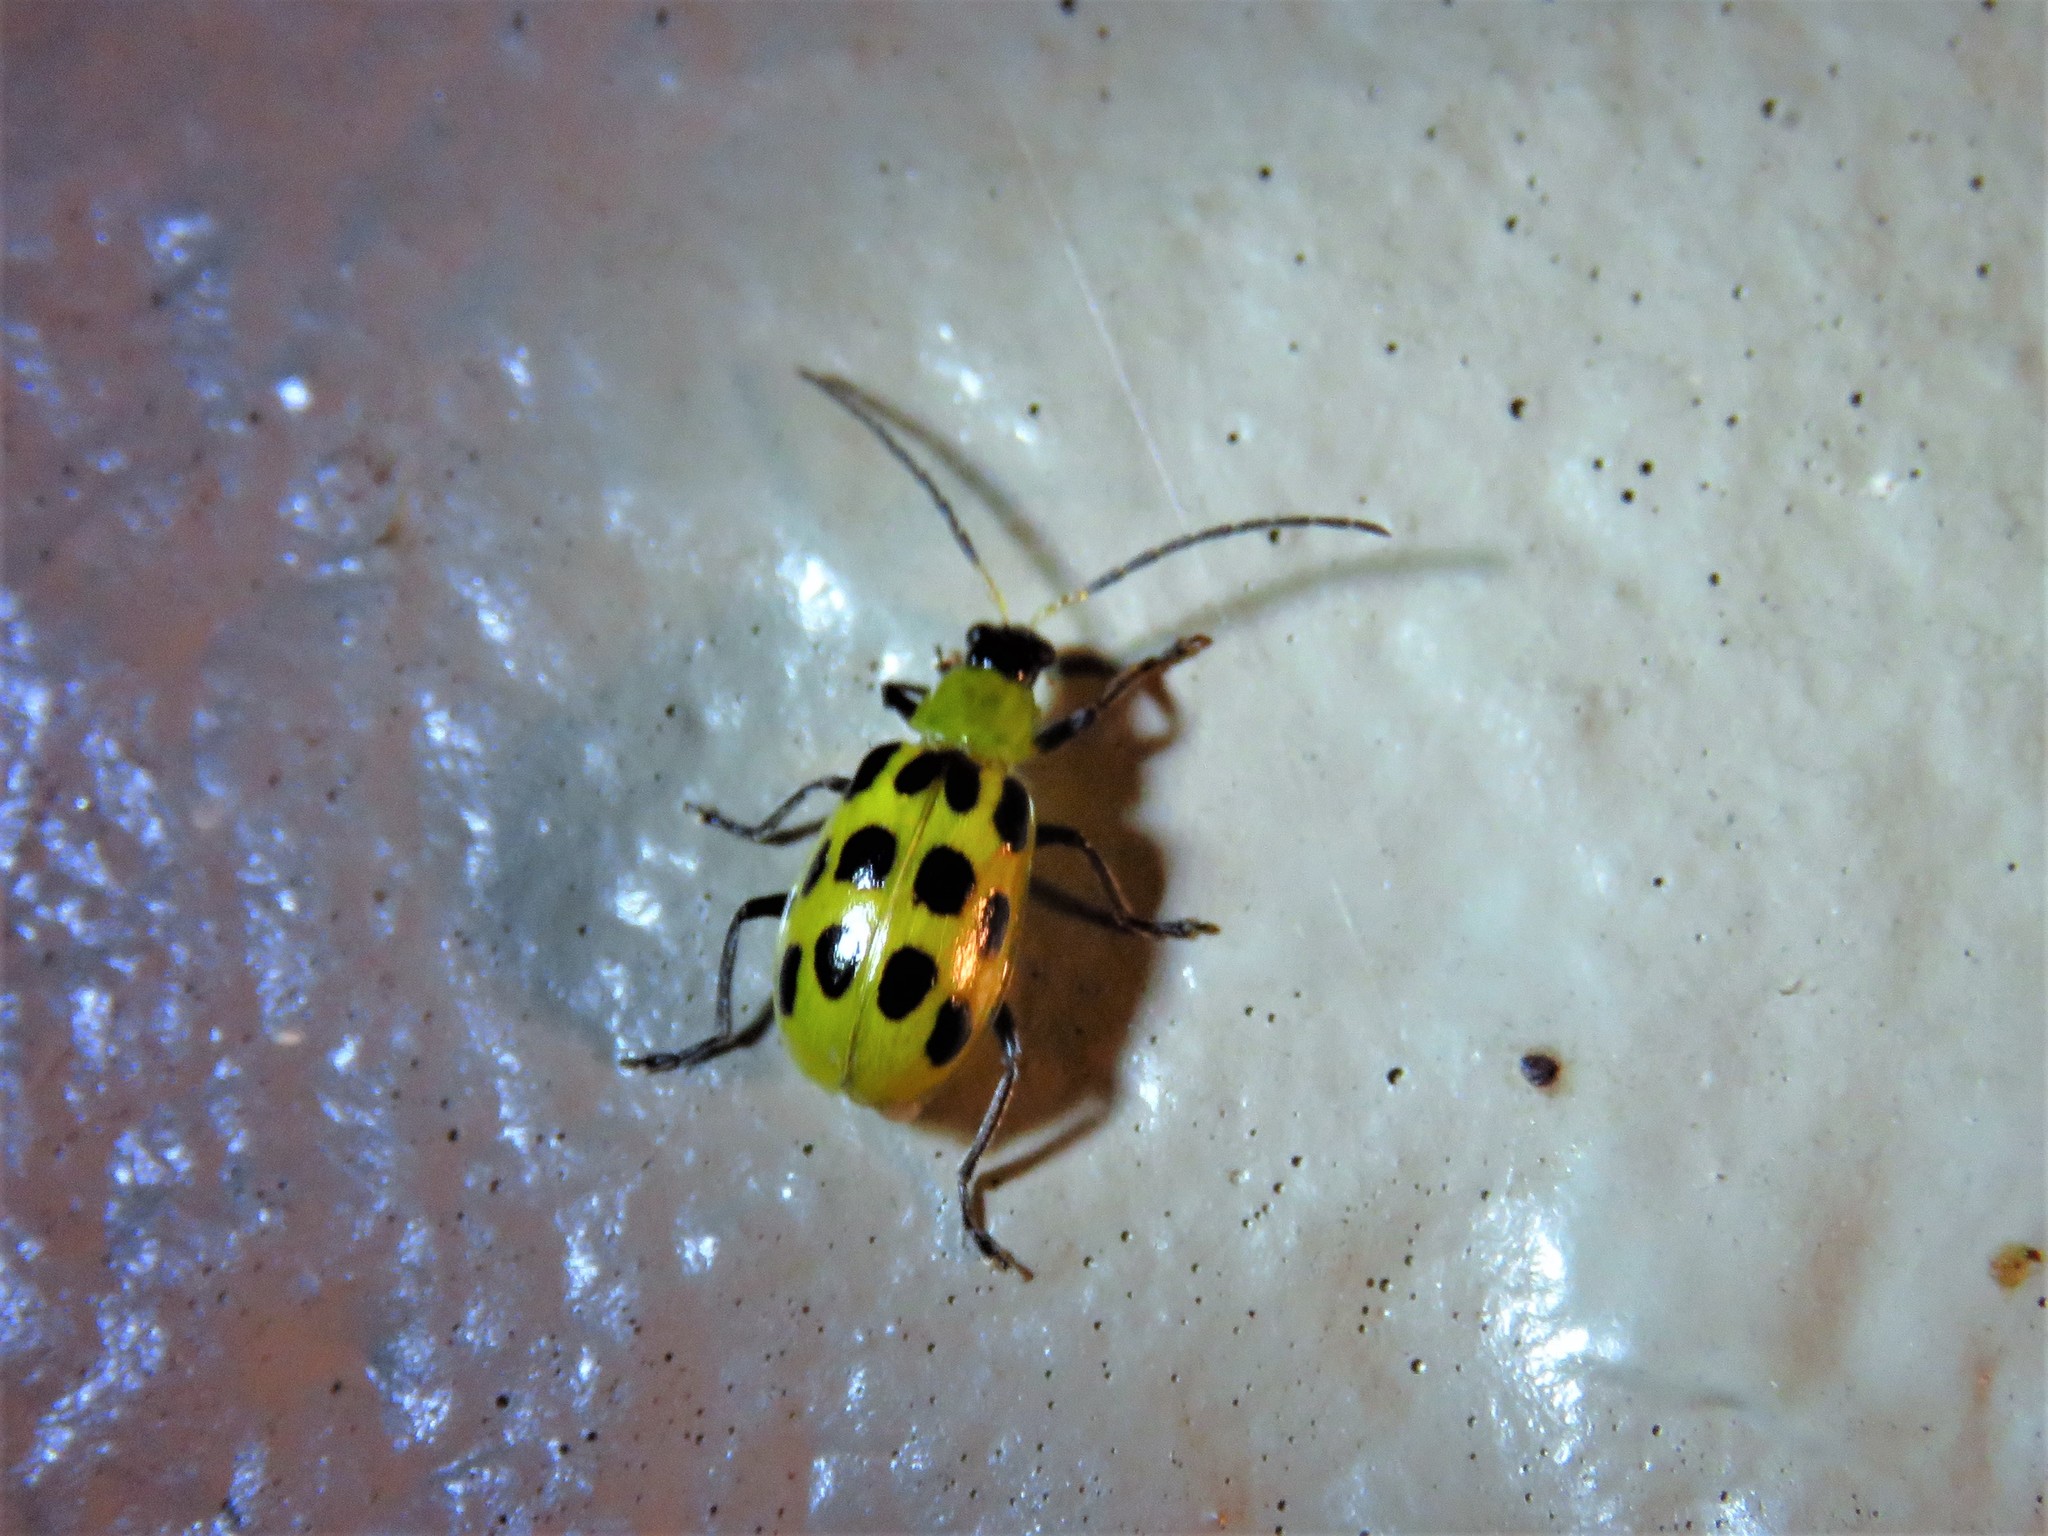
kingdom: Animalia
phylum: Arthropoda
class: Insecta
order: Coleoptera
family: Chrysomelidae
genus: Diabrotica
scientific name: Diabrotica undecimpunctata
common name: Spotted cucumber beetle
